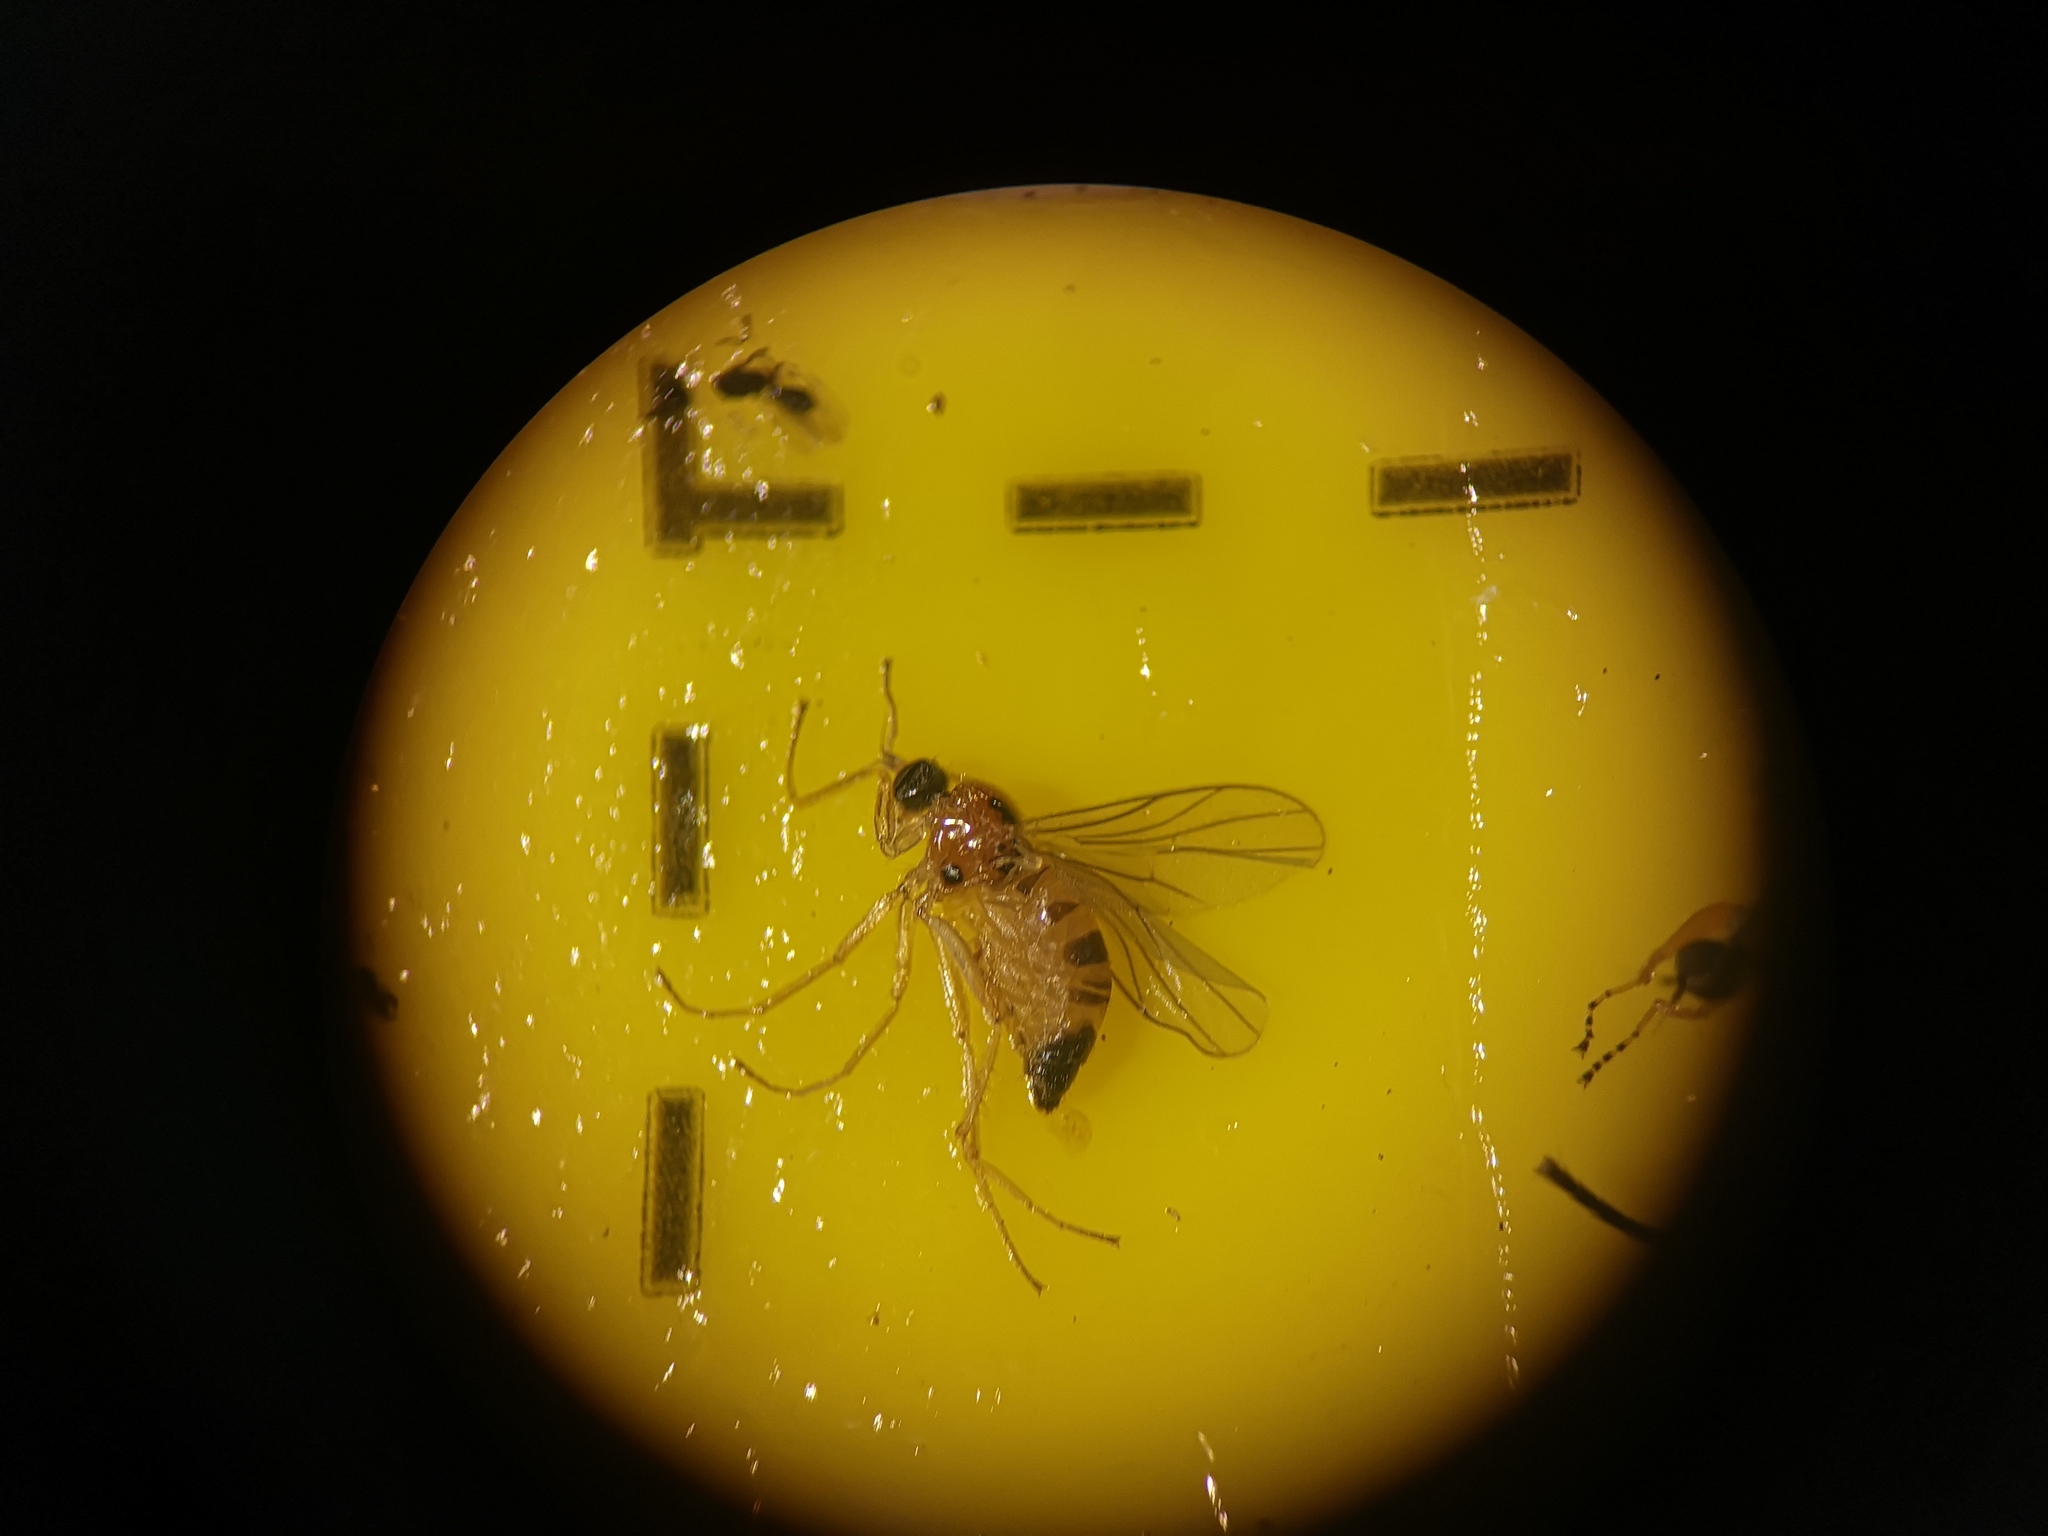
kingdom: Animalia
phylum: Arthropoda
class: Insecta
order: Diptera
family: Hybotidae
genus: Drapetis
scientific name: Drapetis ephippiata
